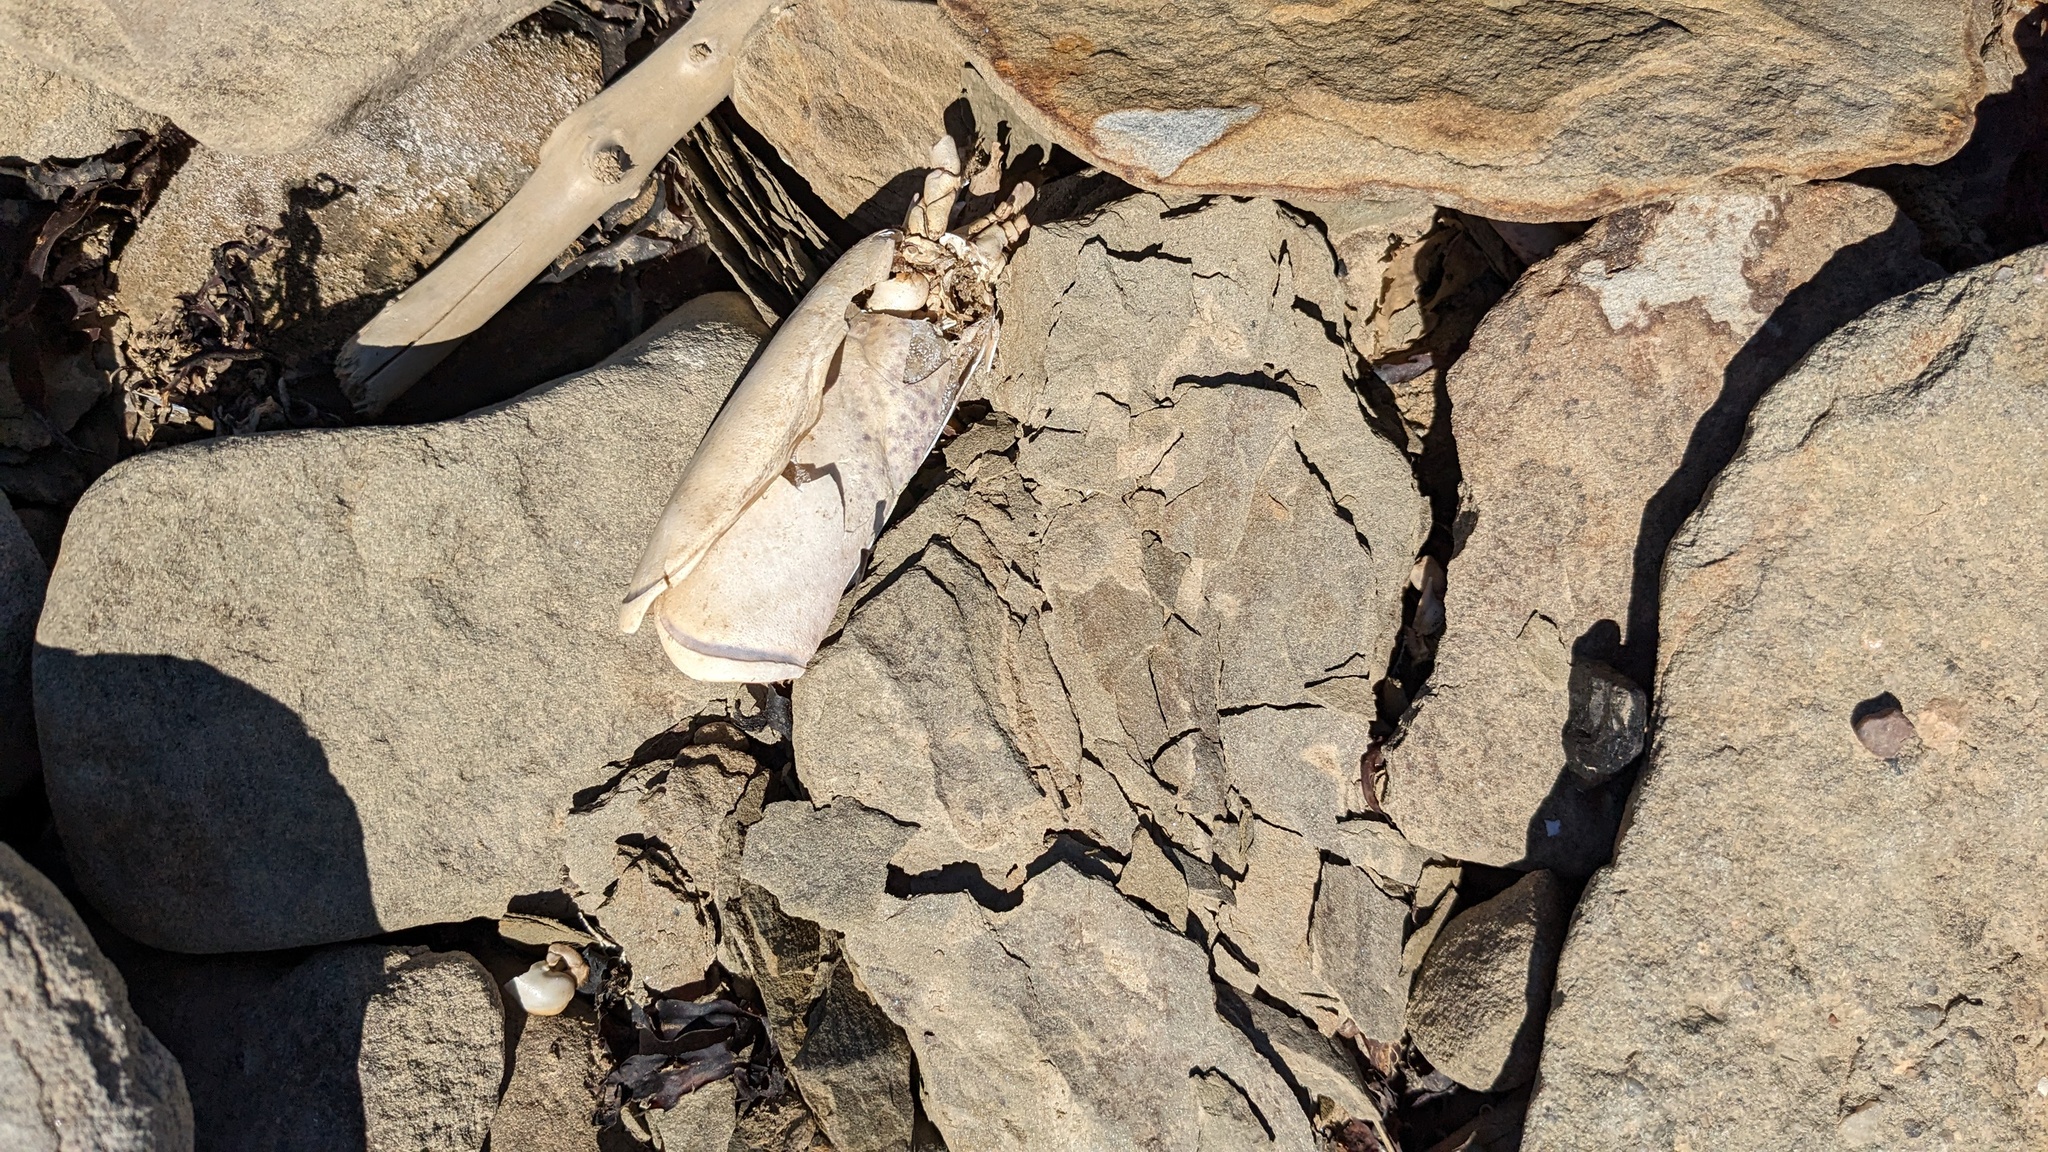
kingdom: Animalia
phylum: Arthropoda
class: Malacostraca
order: Decapoda
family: Nephropidae
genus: Homarus
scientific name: Homarus americanus
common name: American lobster
